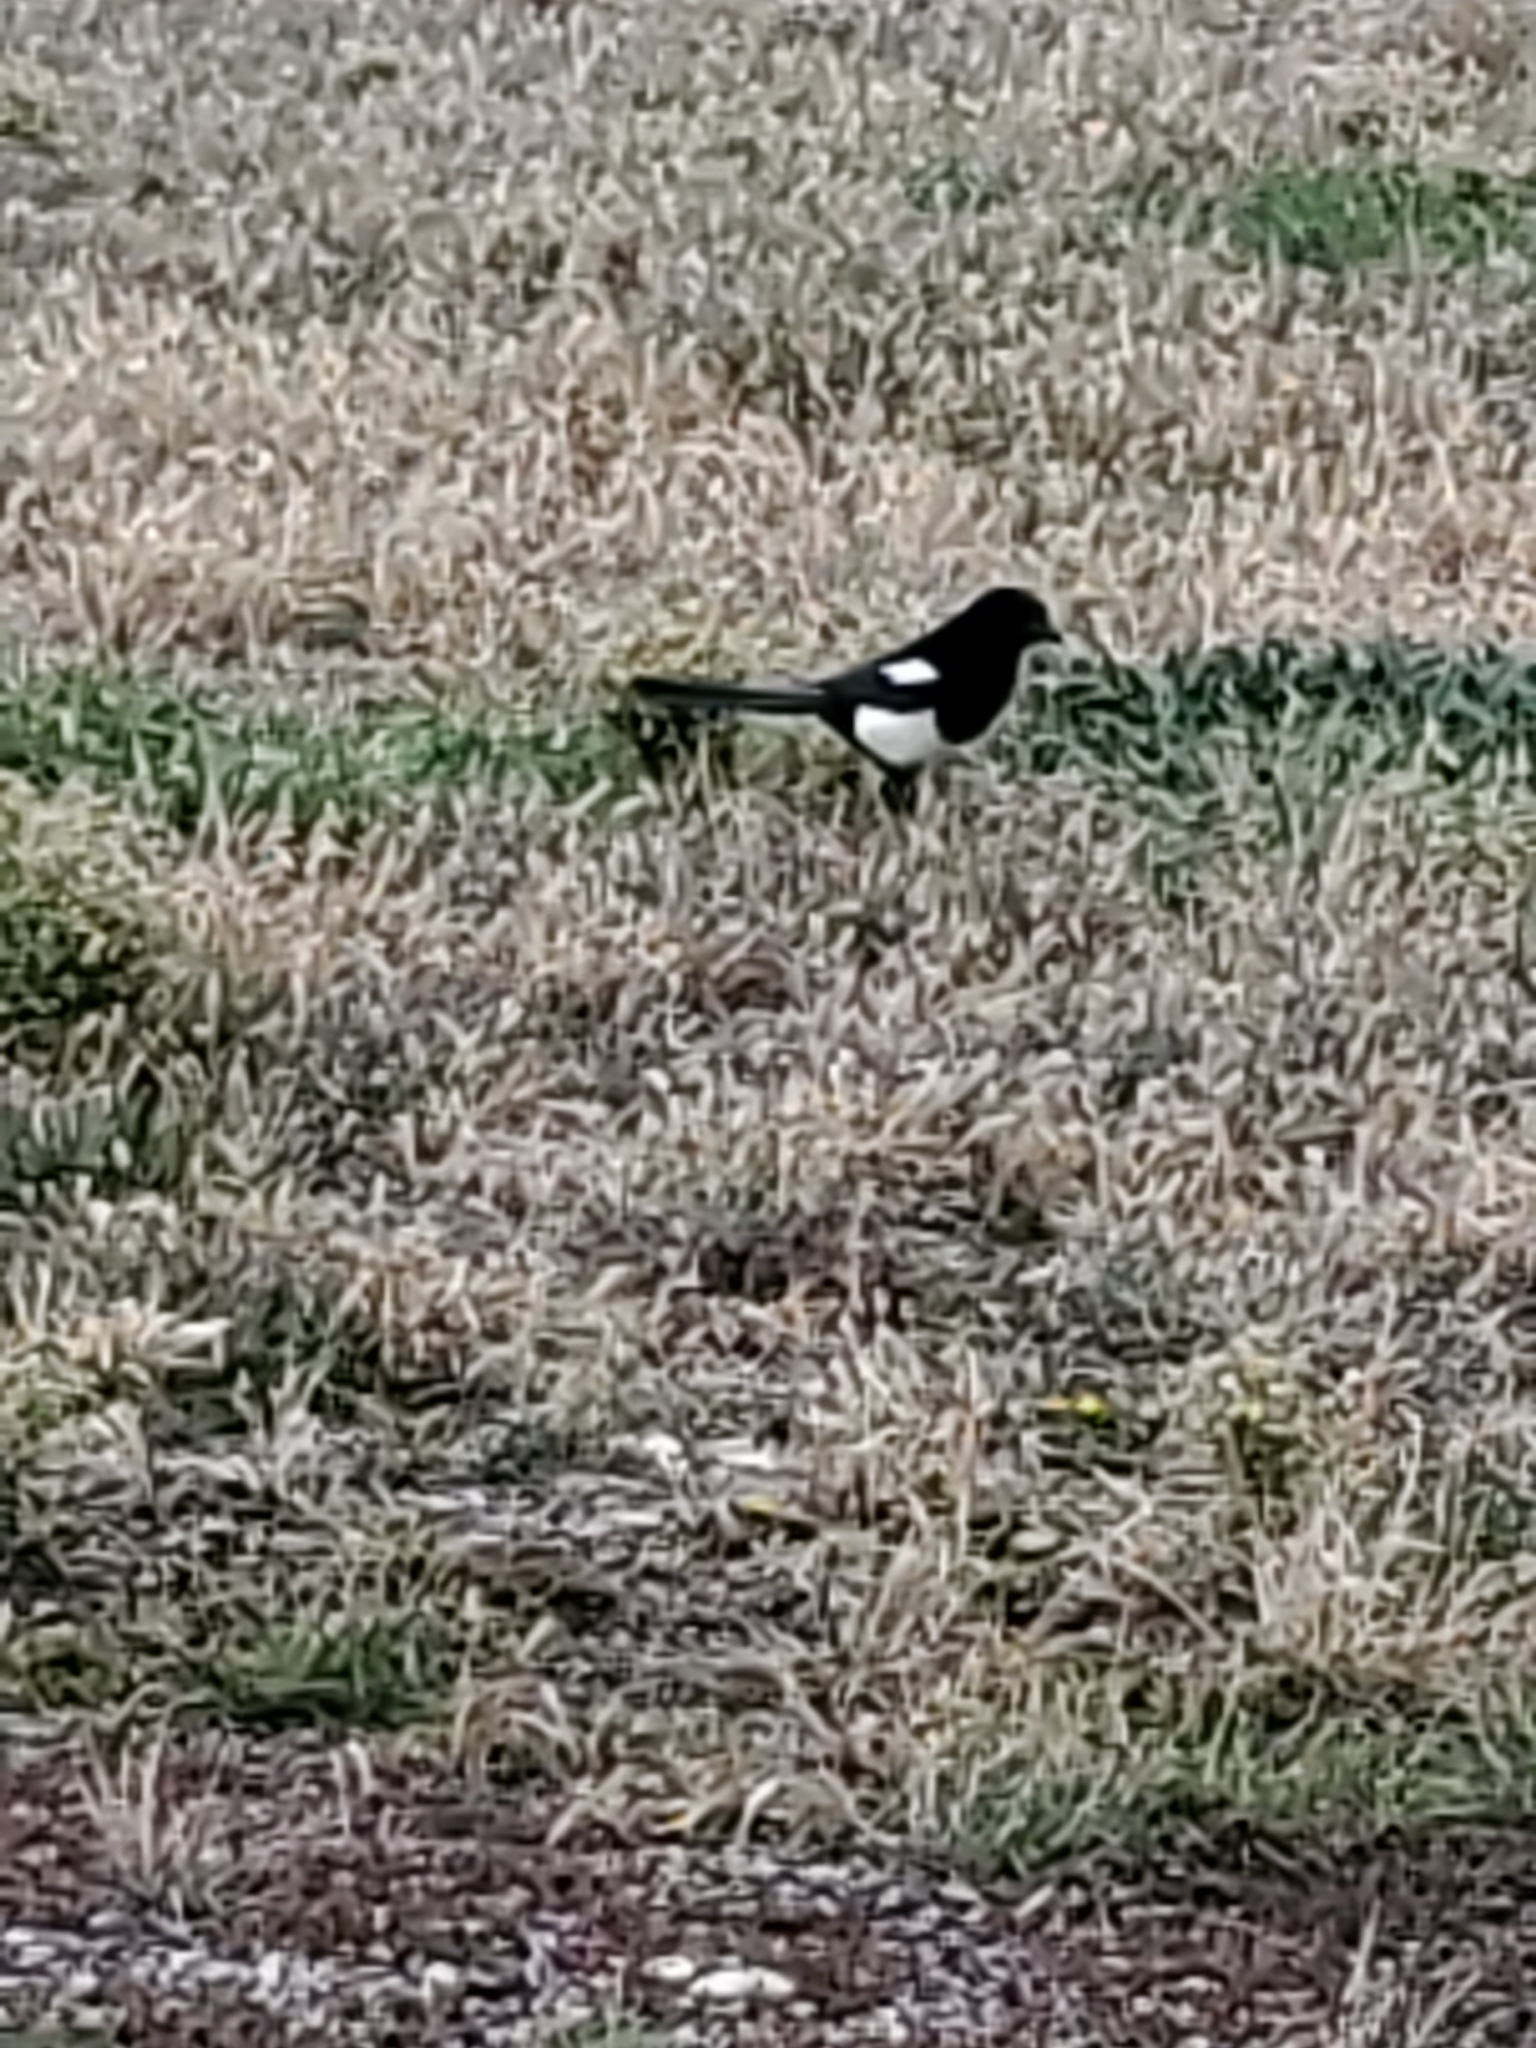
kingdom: Animalia
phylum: Chordata
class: Aves
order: Passeriformes
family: Corvidae
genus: Pica
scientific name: Pica hudsonia
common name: Black-billed magpie
